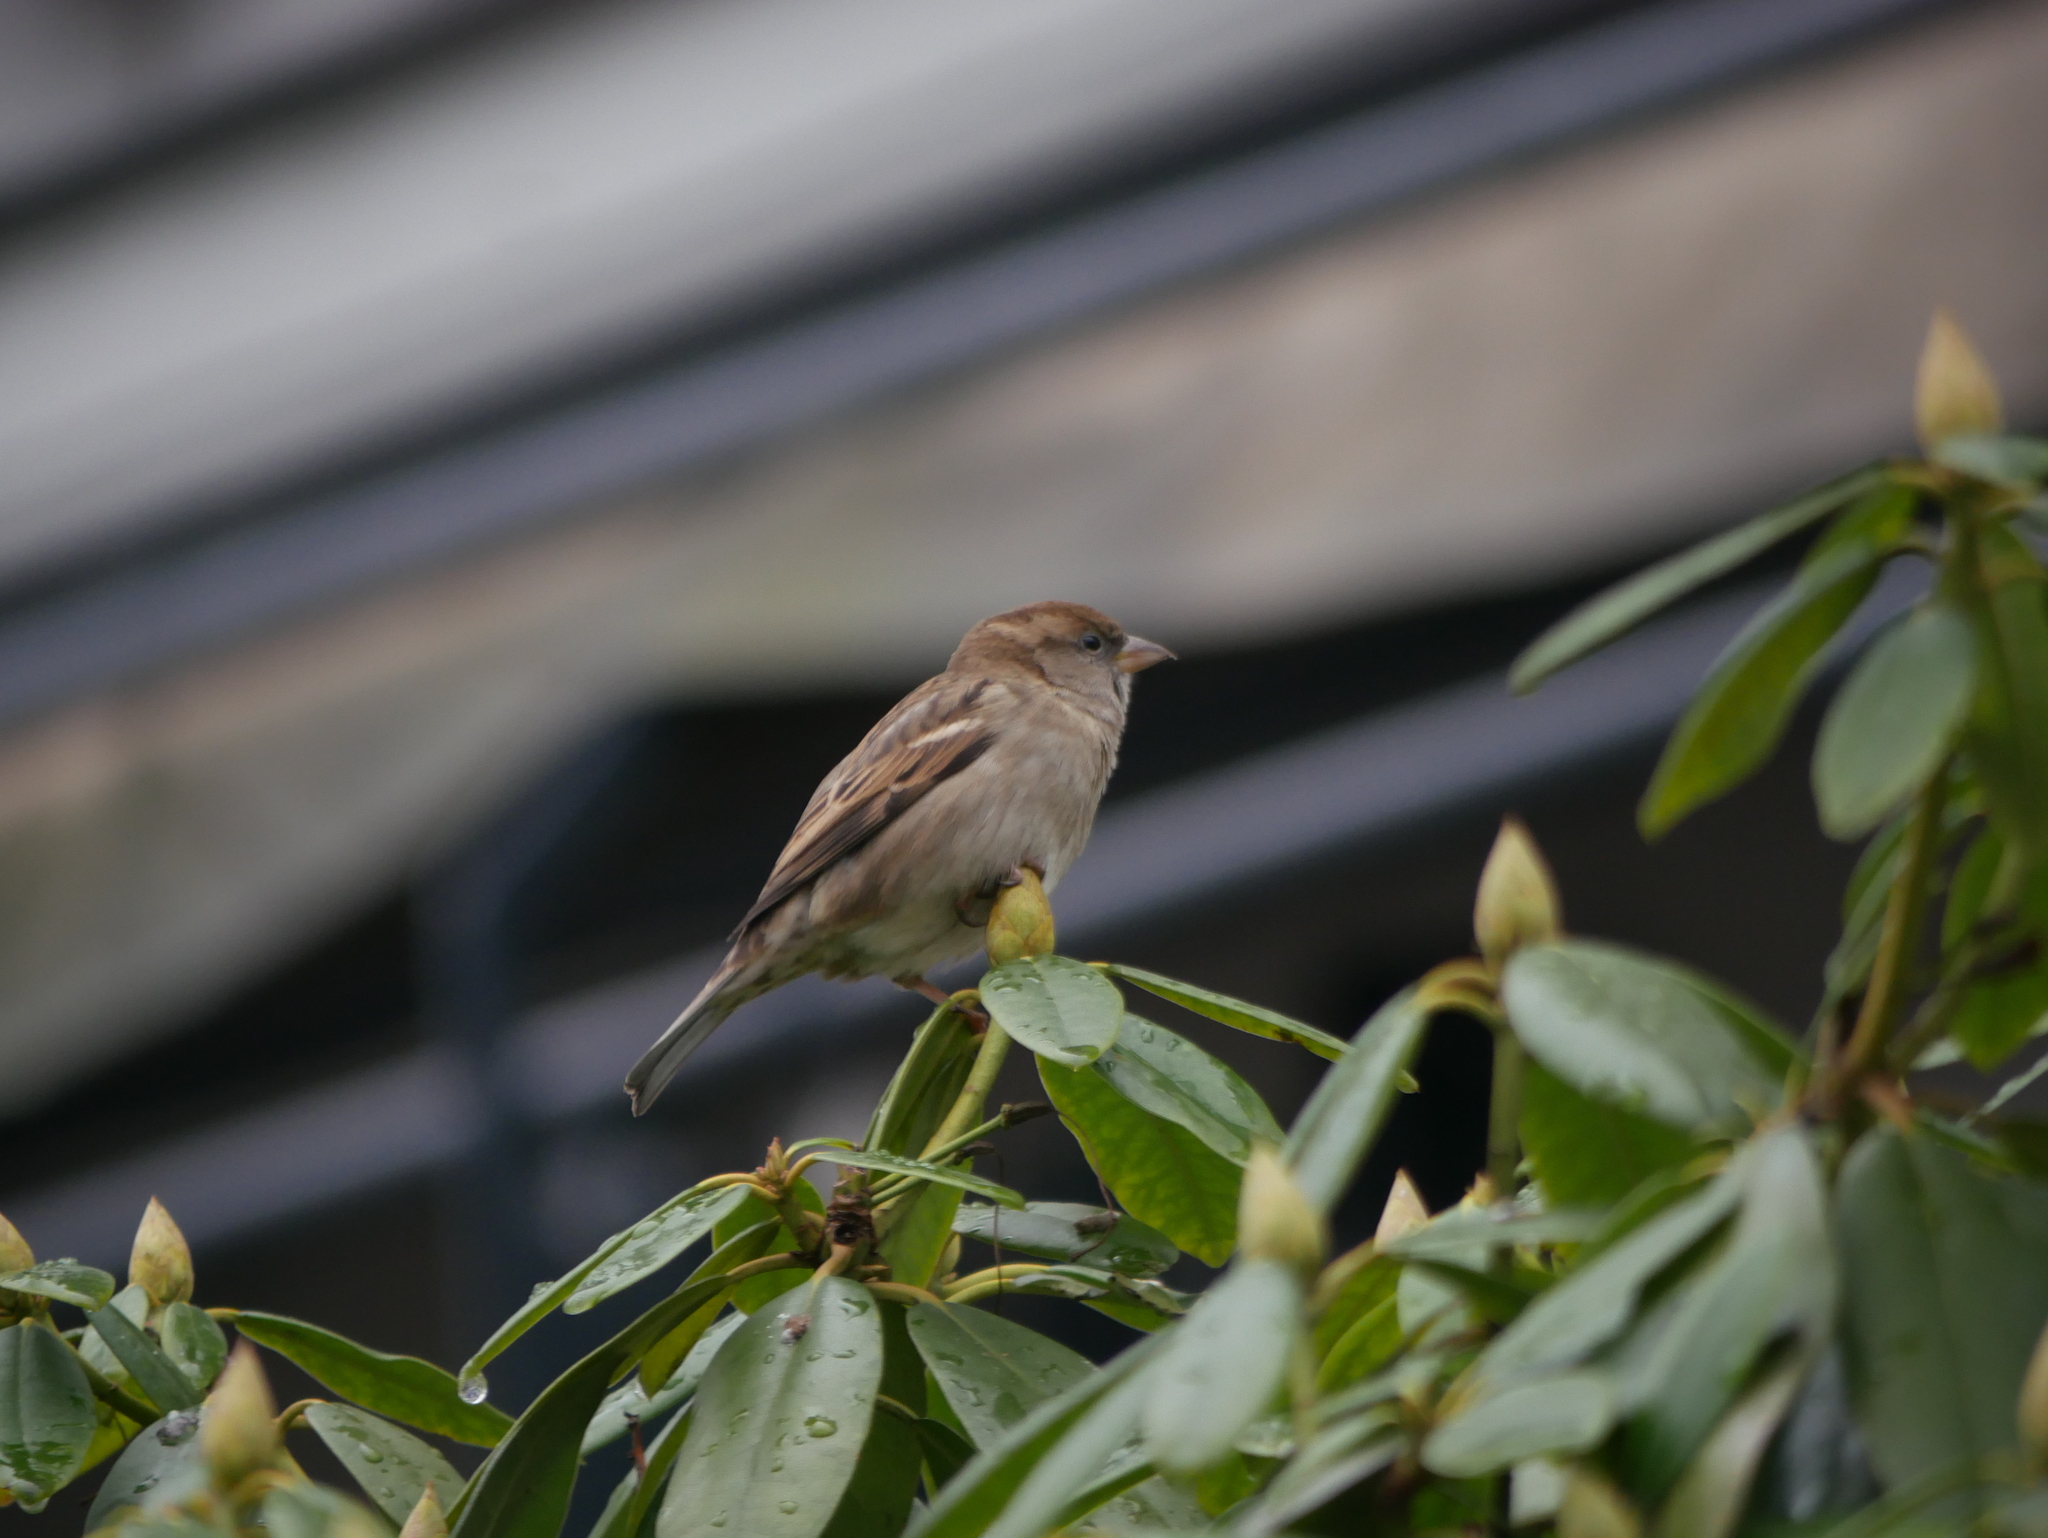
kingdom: Animalia
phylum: Chordata
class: Aves
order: Passeriformes
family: Passeridae
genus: Passer
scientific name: Passer domesticus
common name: House sparrow
